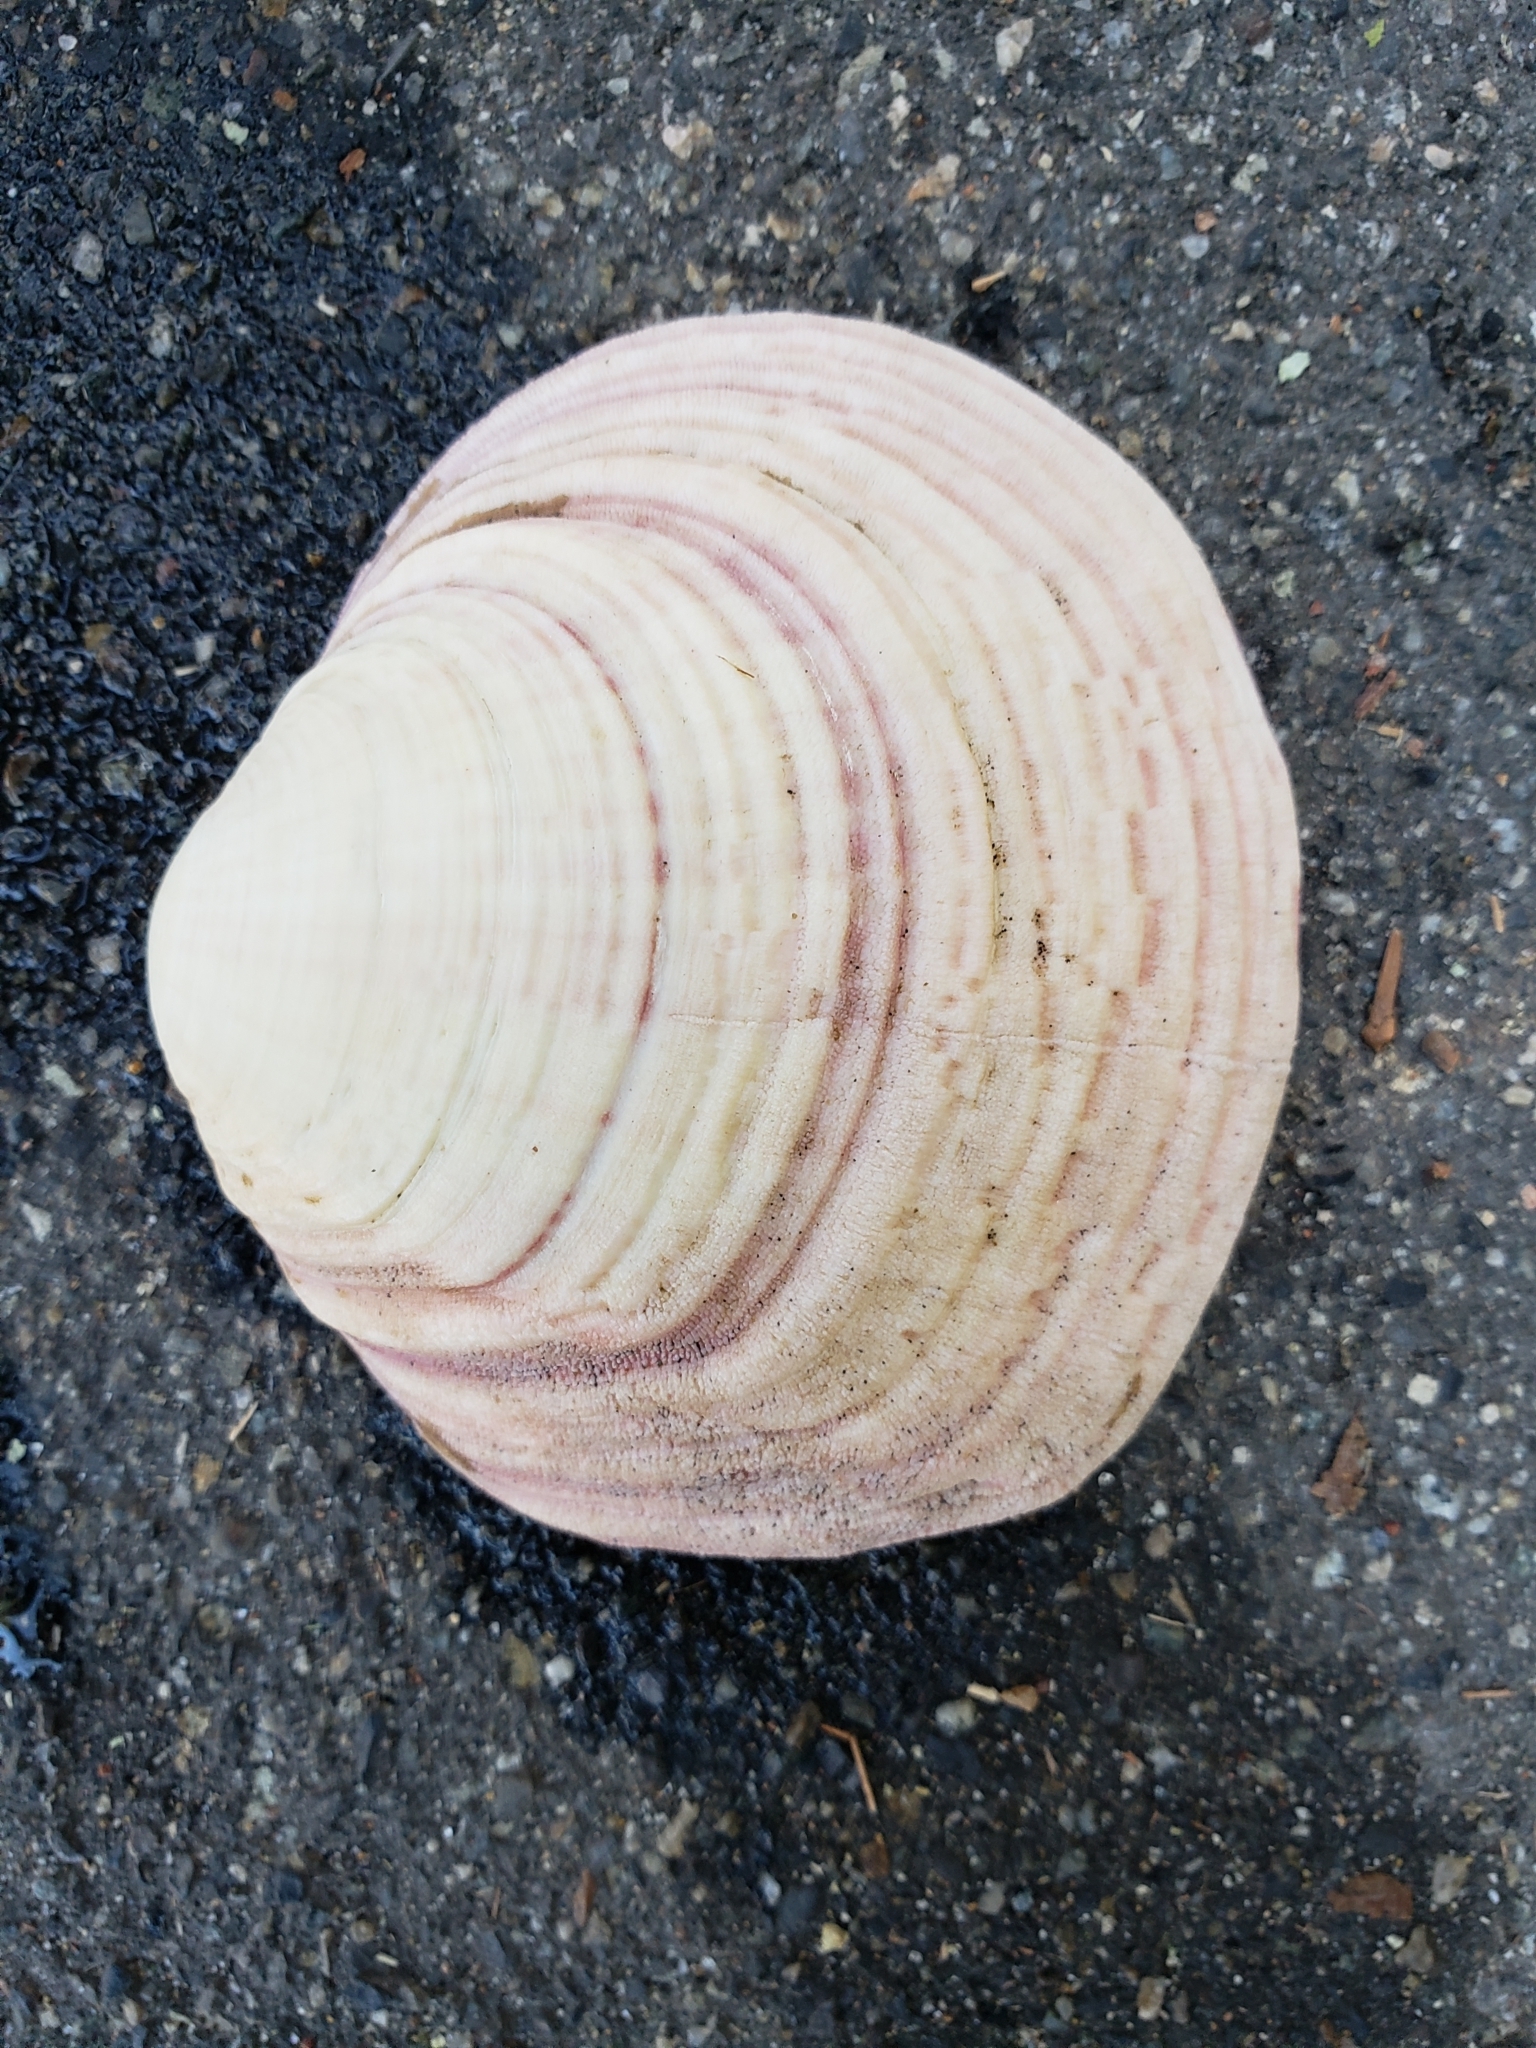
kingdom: Animalia
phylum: Mollusca
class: Bivalvia
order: Cardiida
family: Semelidae
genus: Semele
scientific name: Semele decisa
